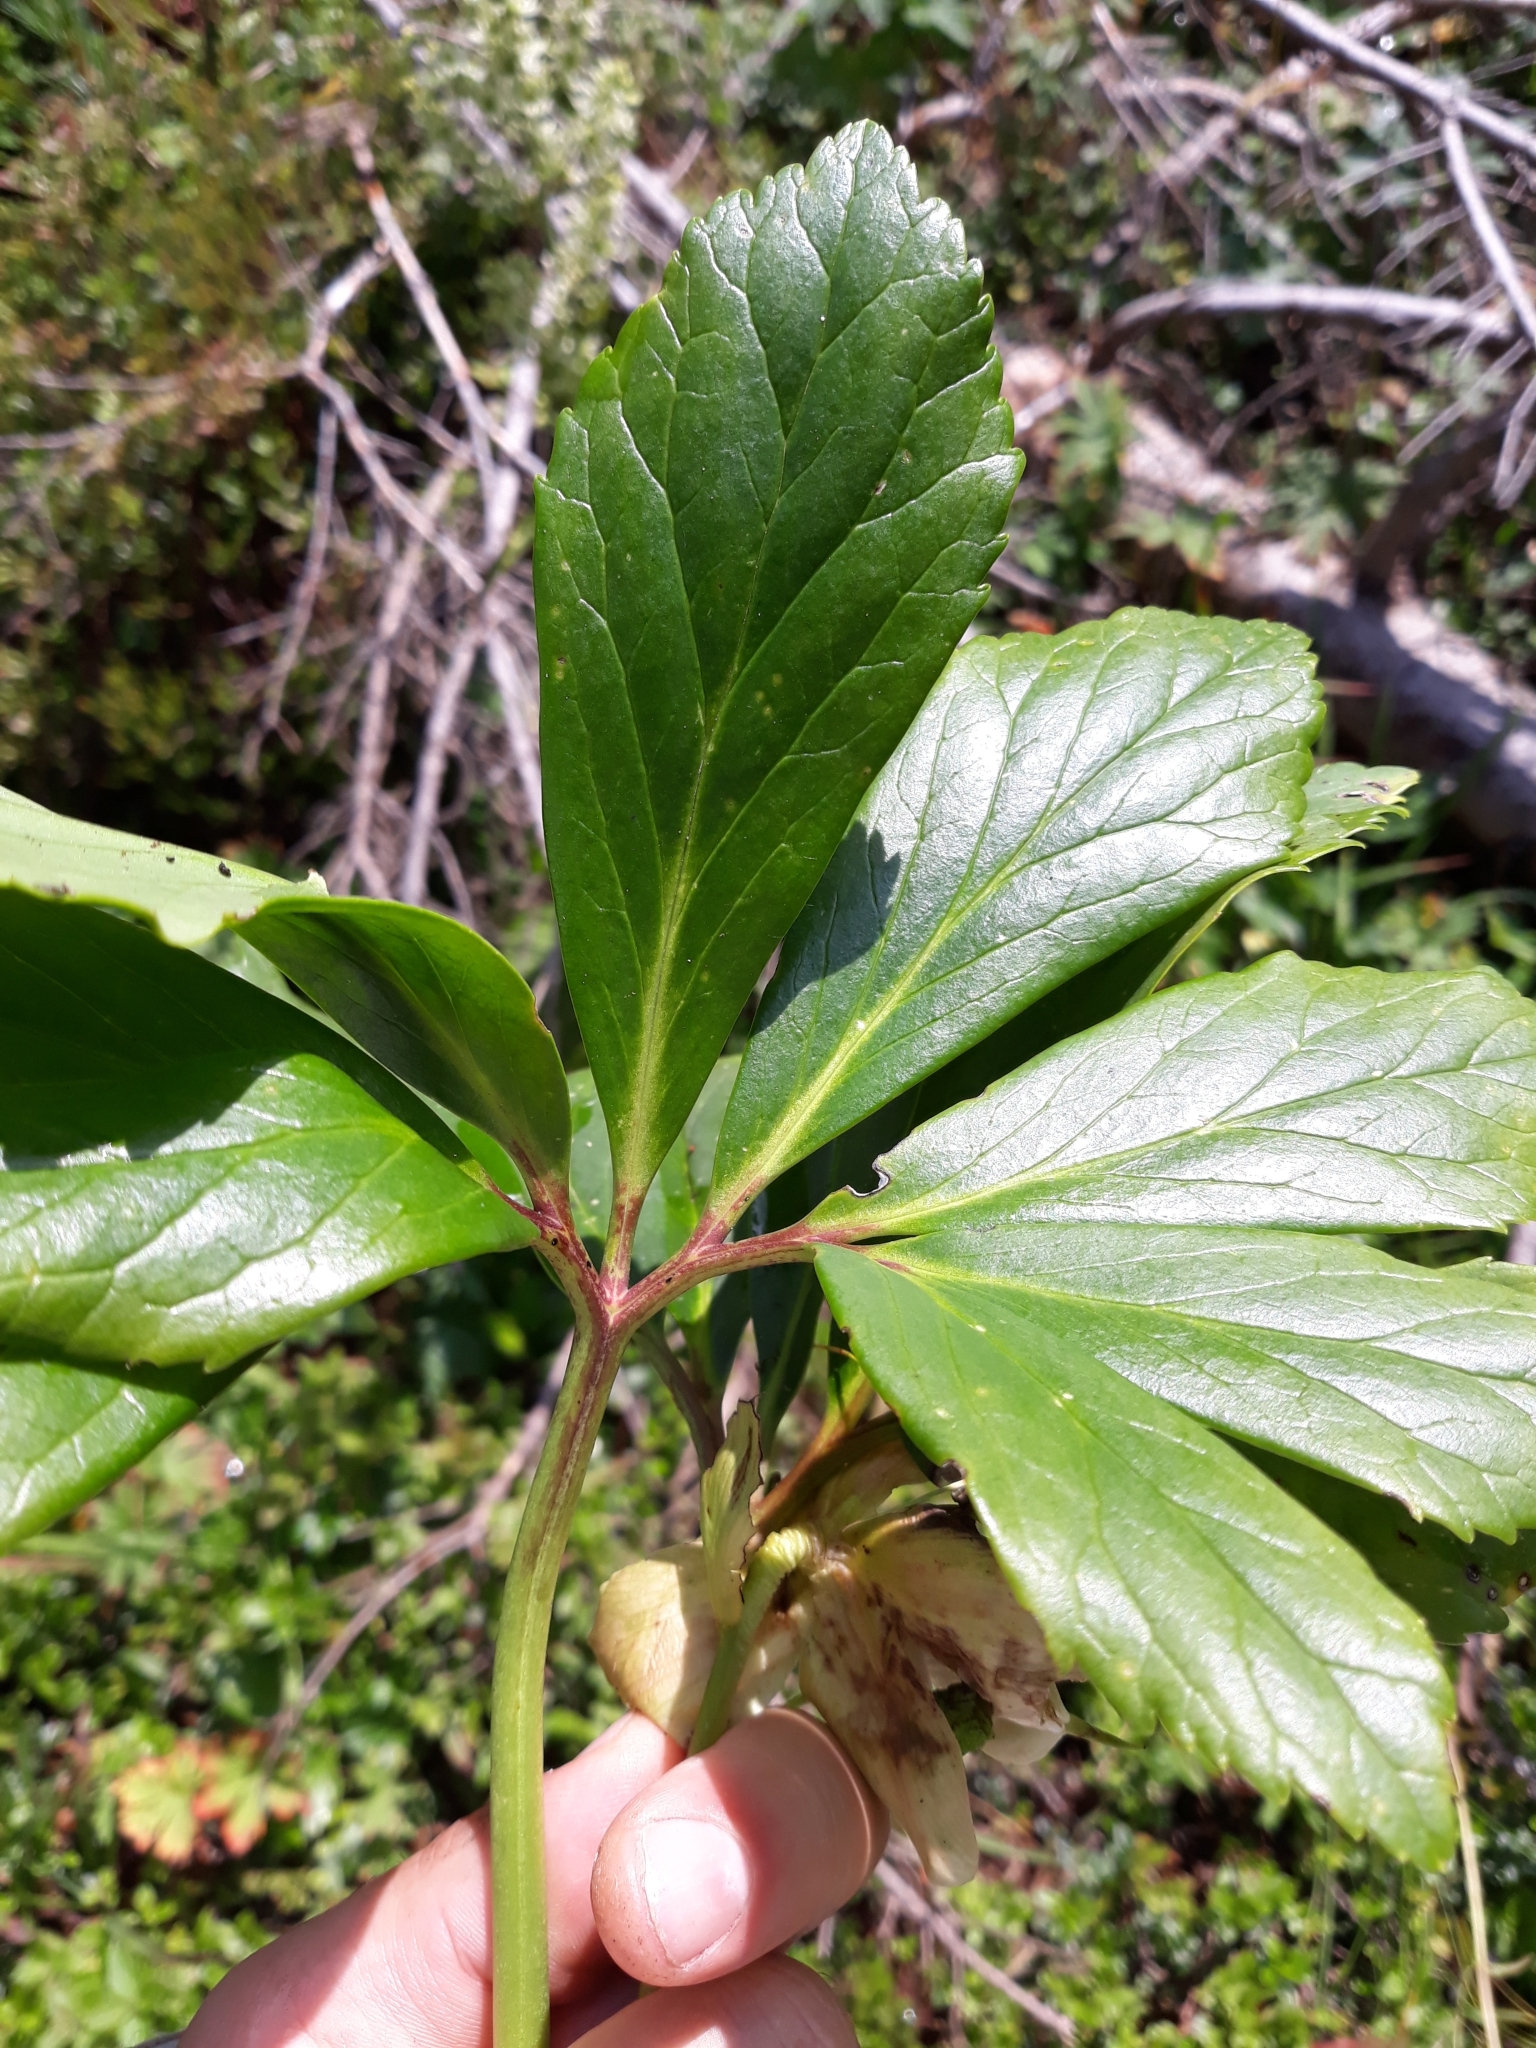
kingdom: Plantae
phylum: Tracheophyta
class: Magnoliopsida
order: Ranunculales
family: Ranunculaceae
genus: Helleborus
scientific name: Helleborus niger
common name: Black hellebore
